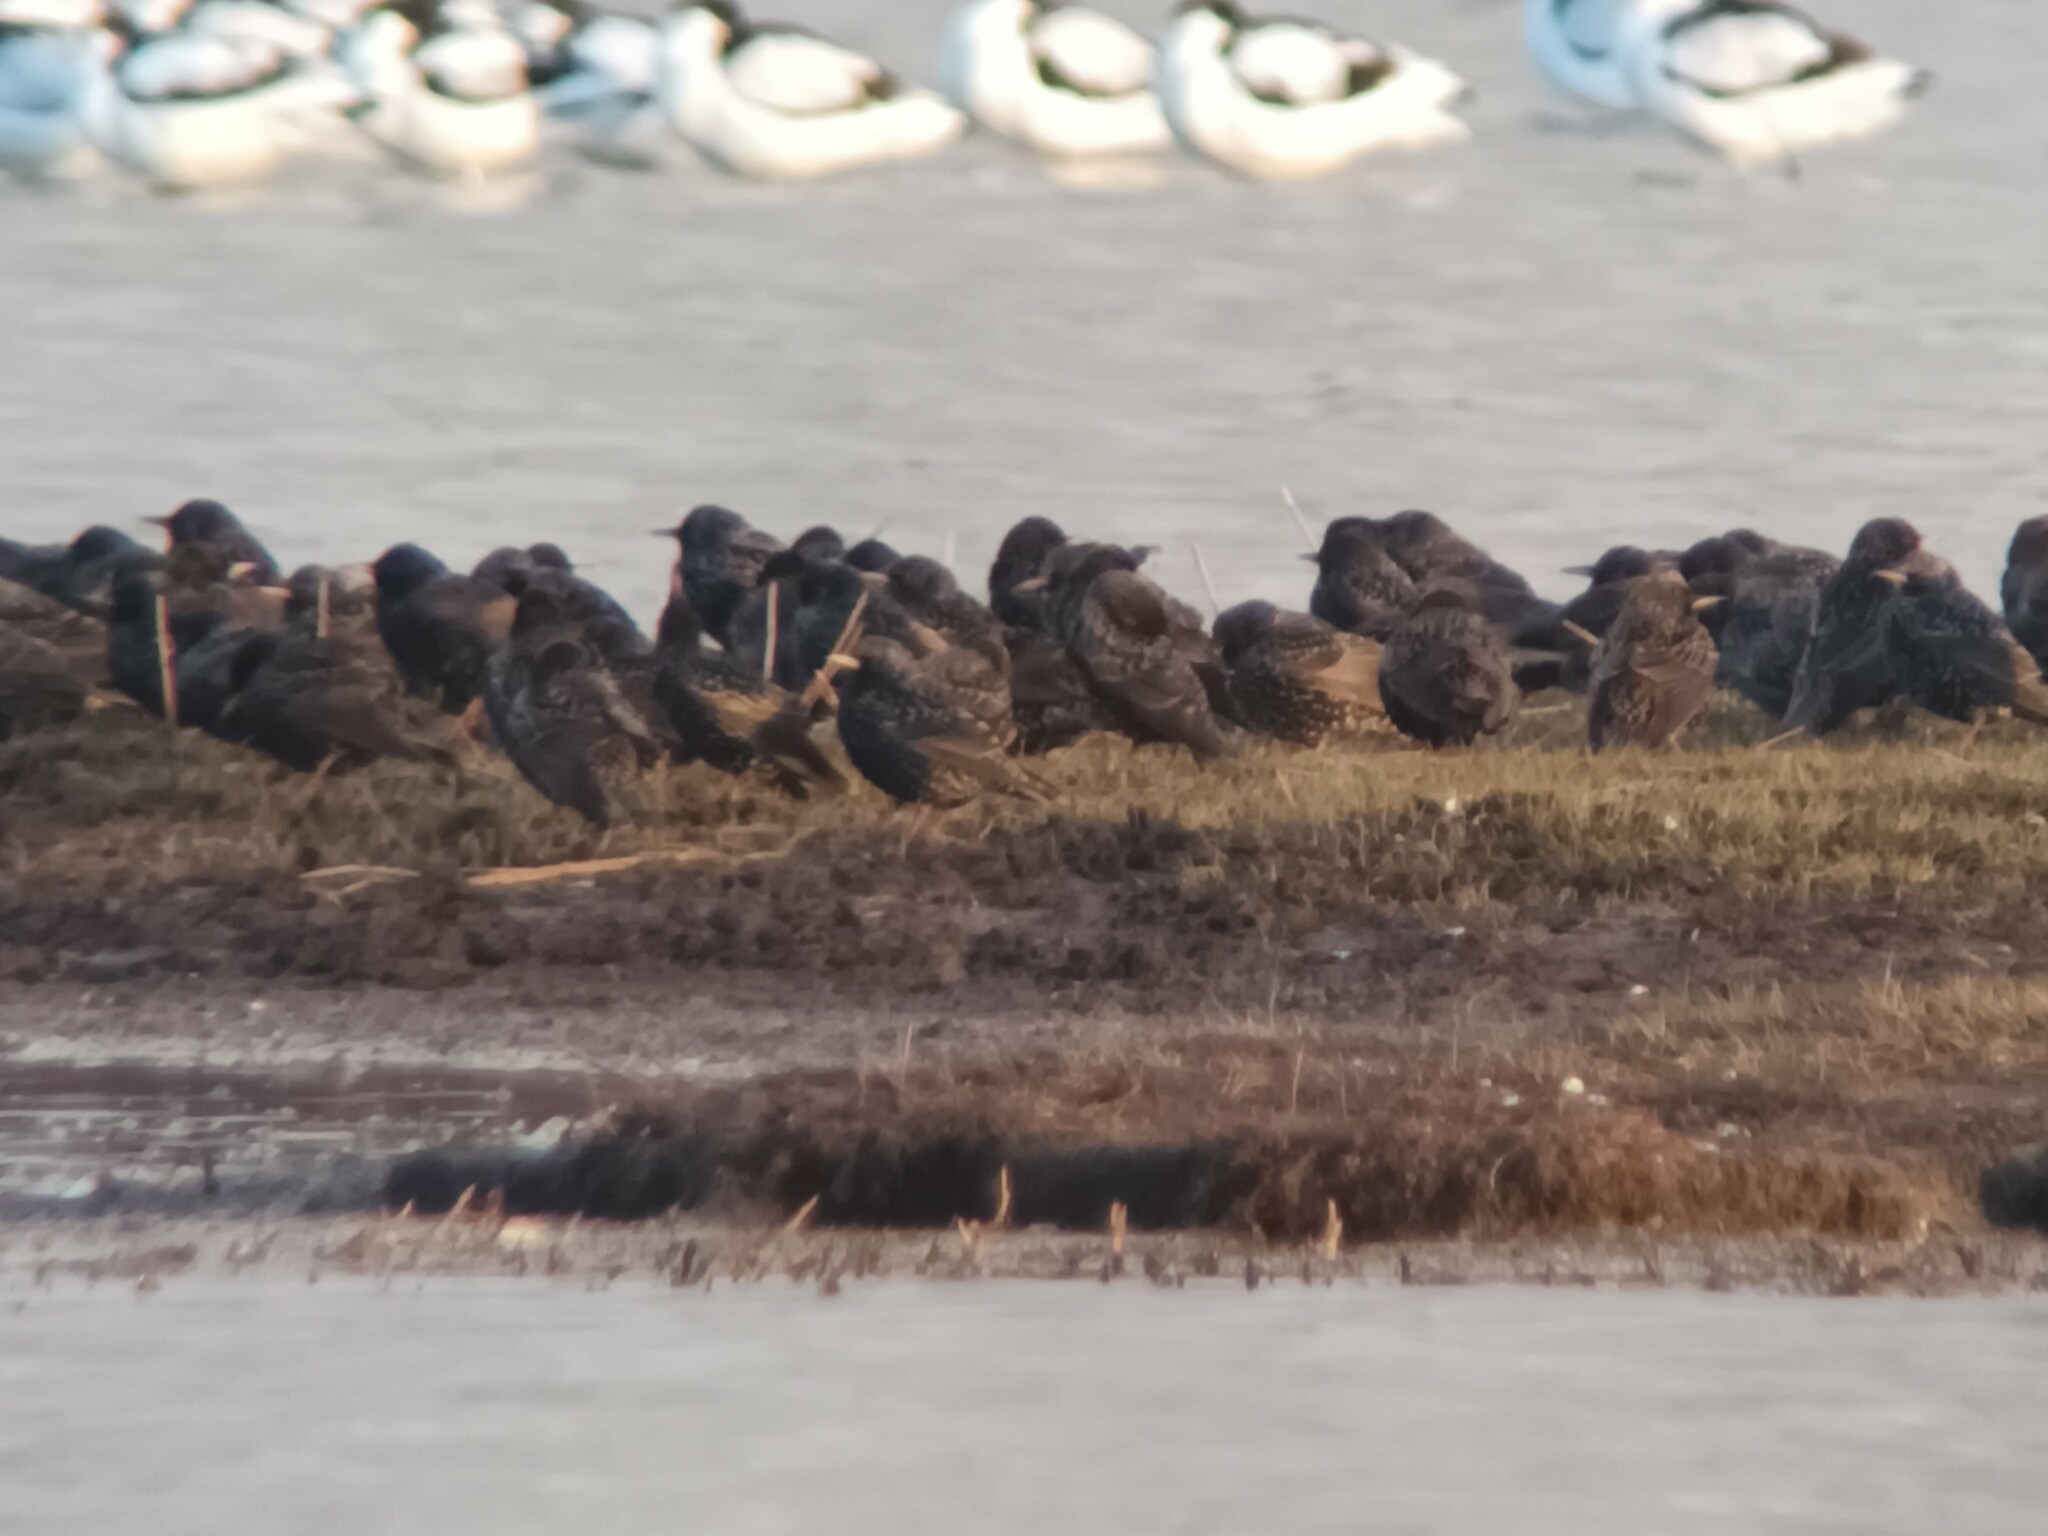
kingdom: Animalia
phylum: Chordata
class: Aves
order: Passeriformes
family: Sturnidae
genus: Sturnus
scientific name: Sturnus vulgaris
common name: Common starling
